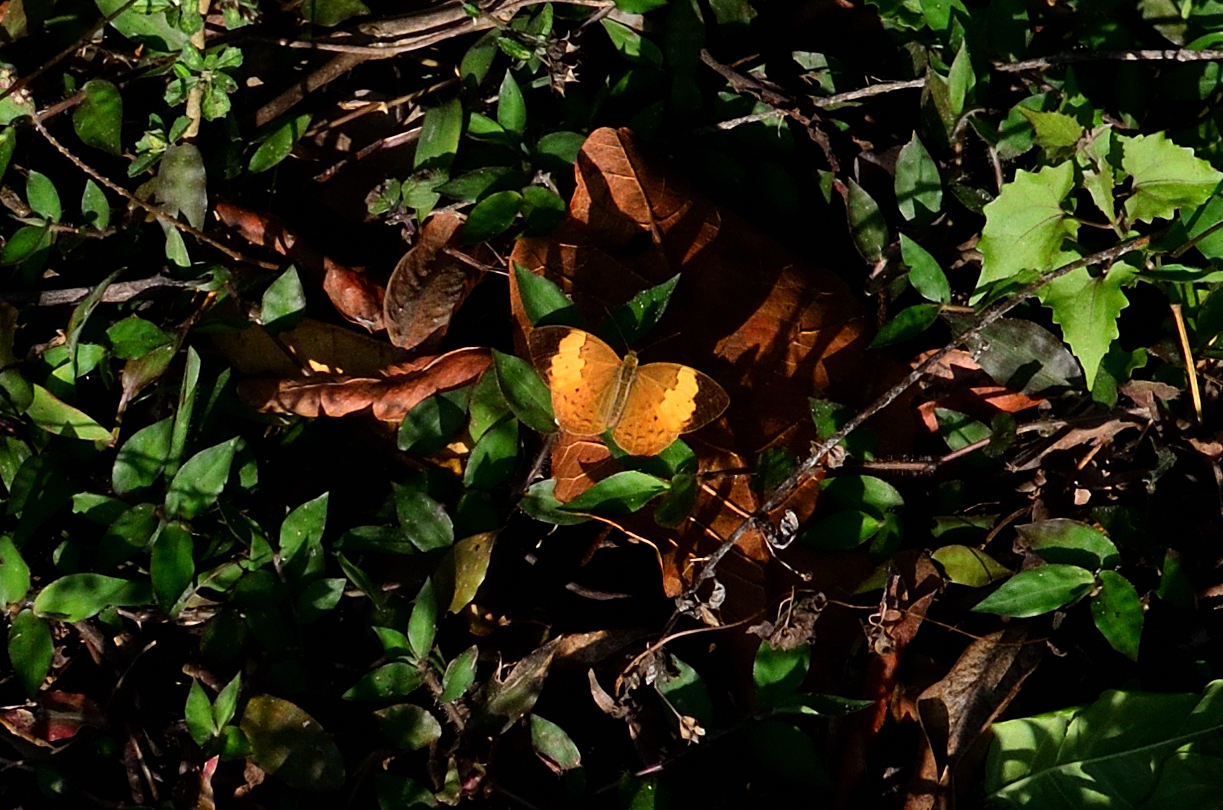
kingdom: Animalia
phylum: Arthropoda
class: Insecta
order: Lepidoptera
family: Nymphalidae
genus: Cupha
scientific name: Cupha erymanthis
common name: Rustic
